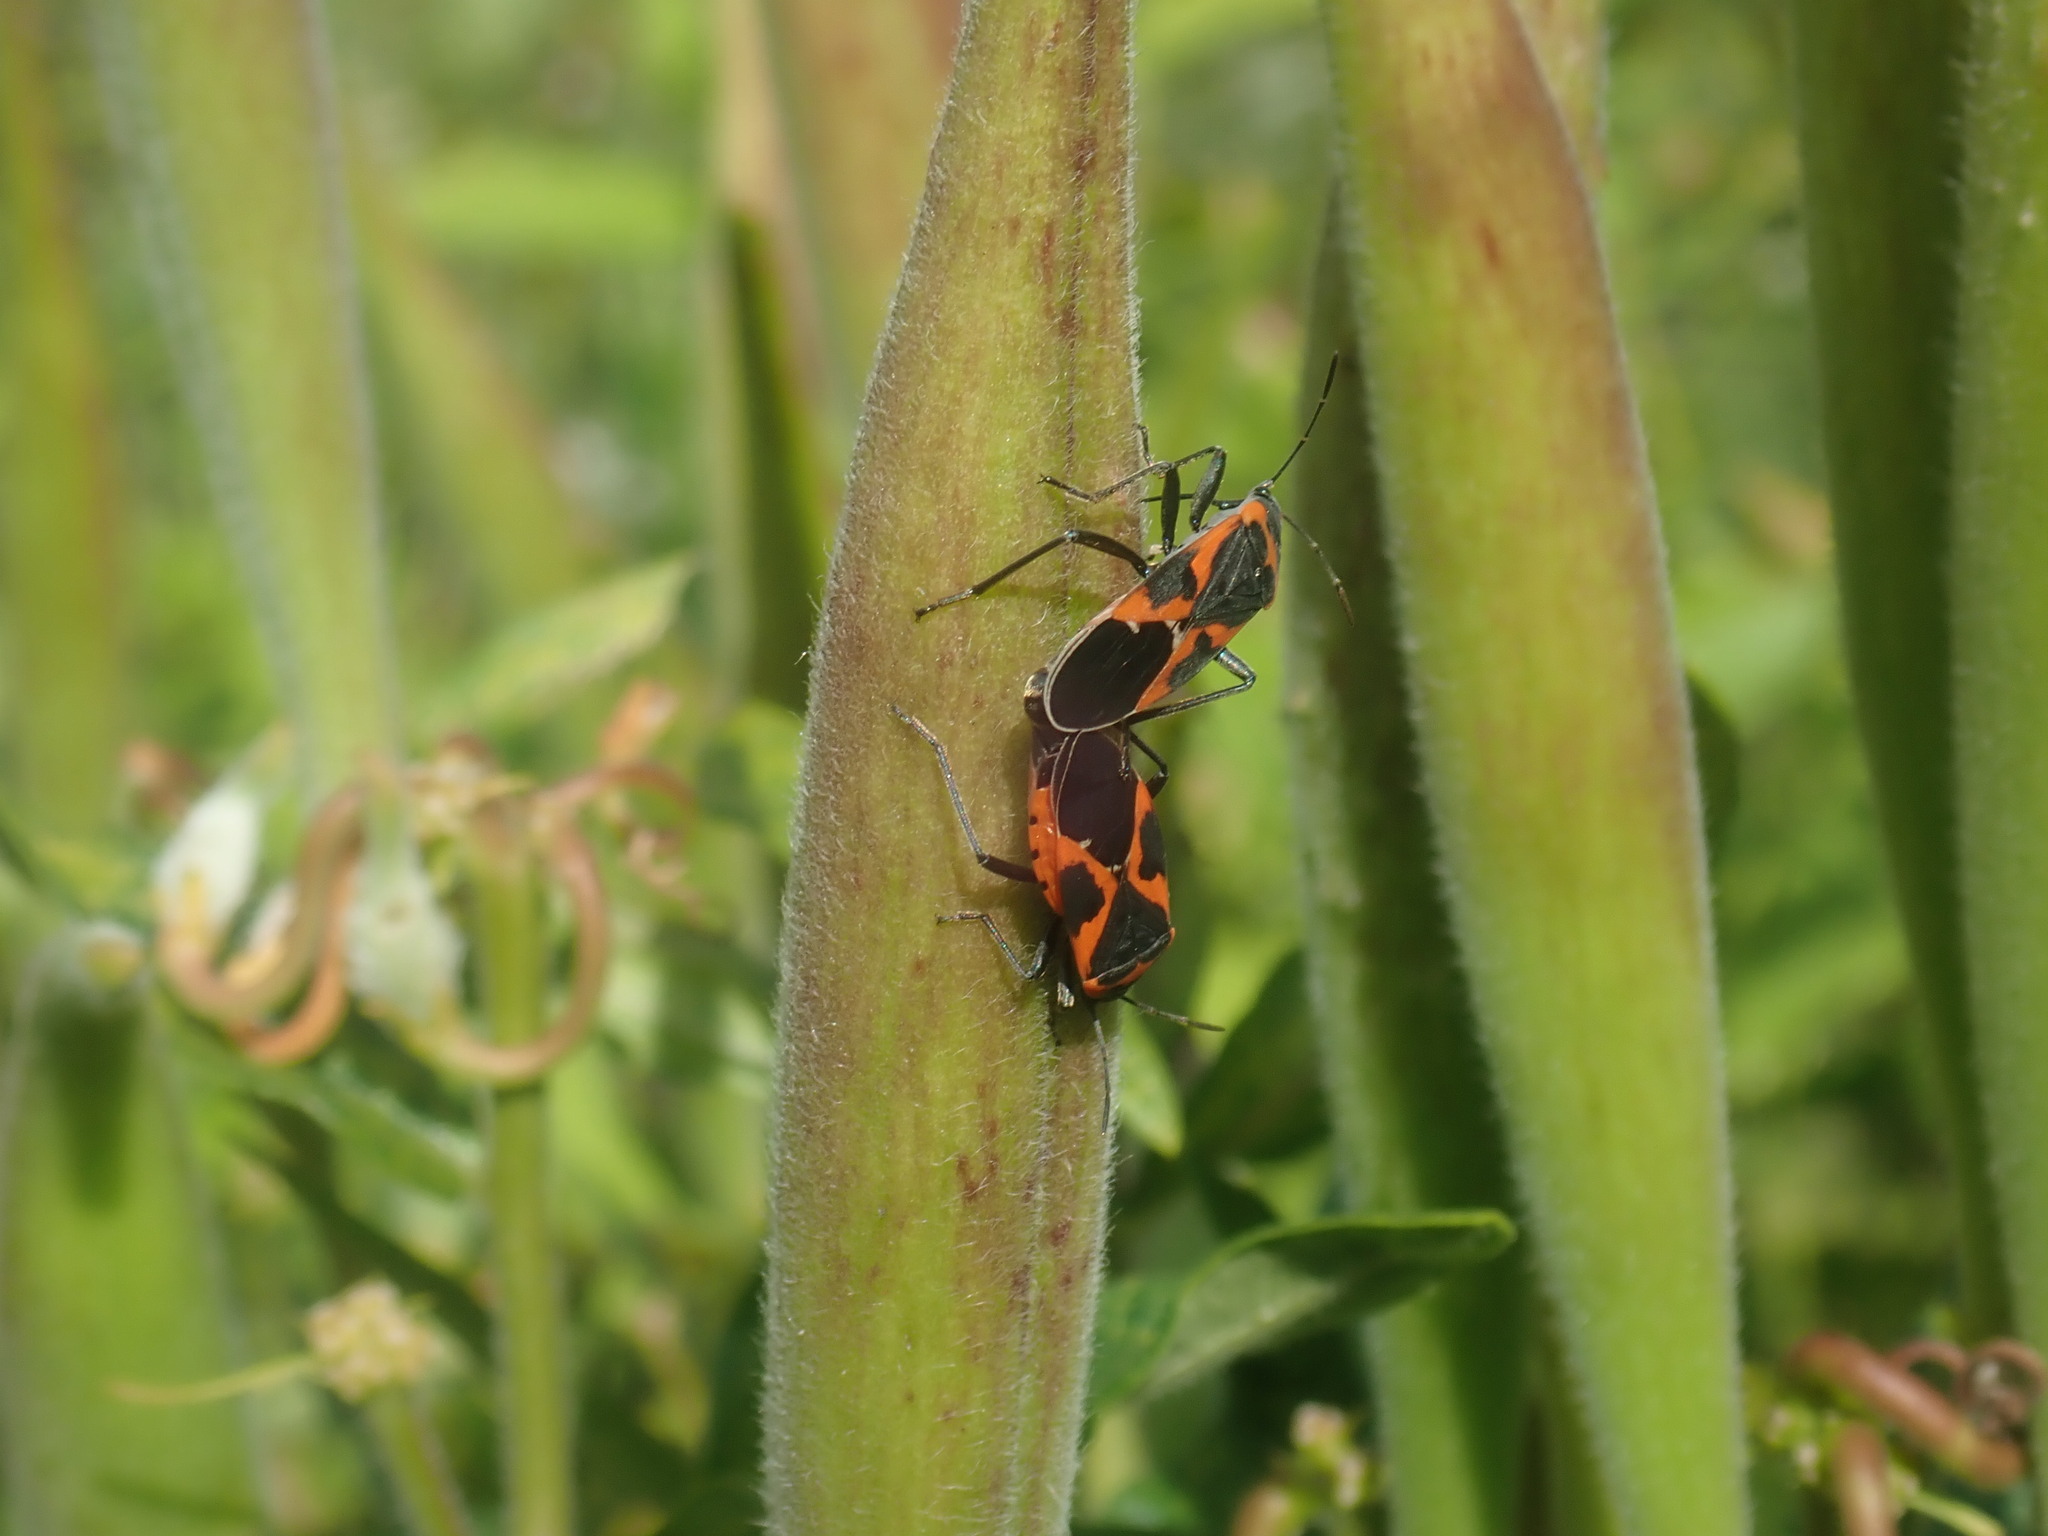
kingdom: Animalia
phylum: Arthropoda
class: Insecta
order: Hemiptera
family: Lygaeidae
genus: Lygaeus
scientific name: Lygaeus kalmii
